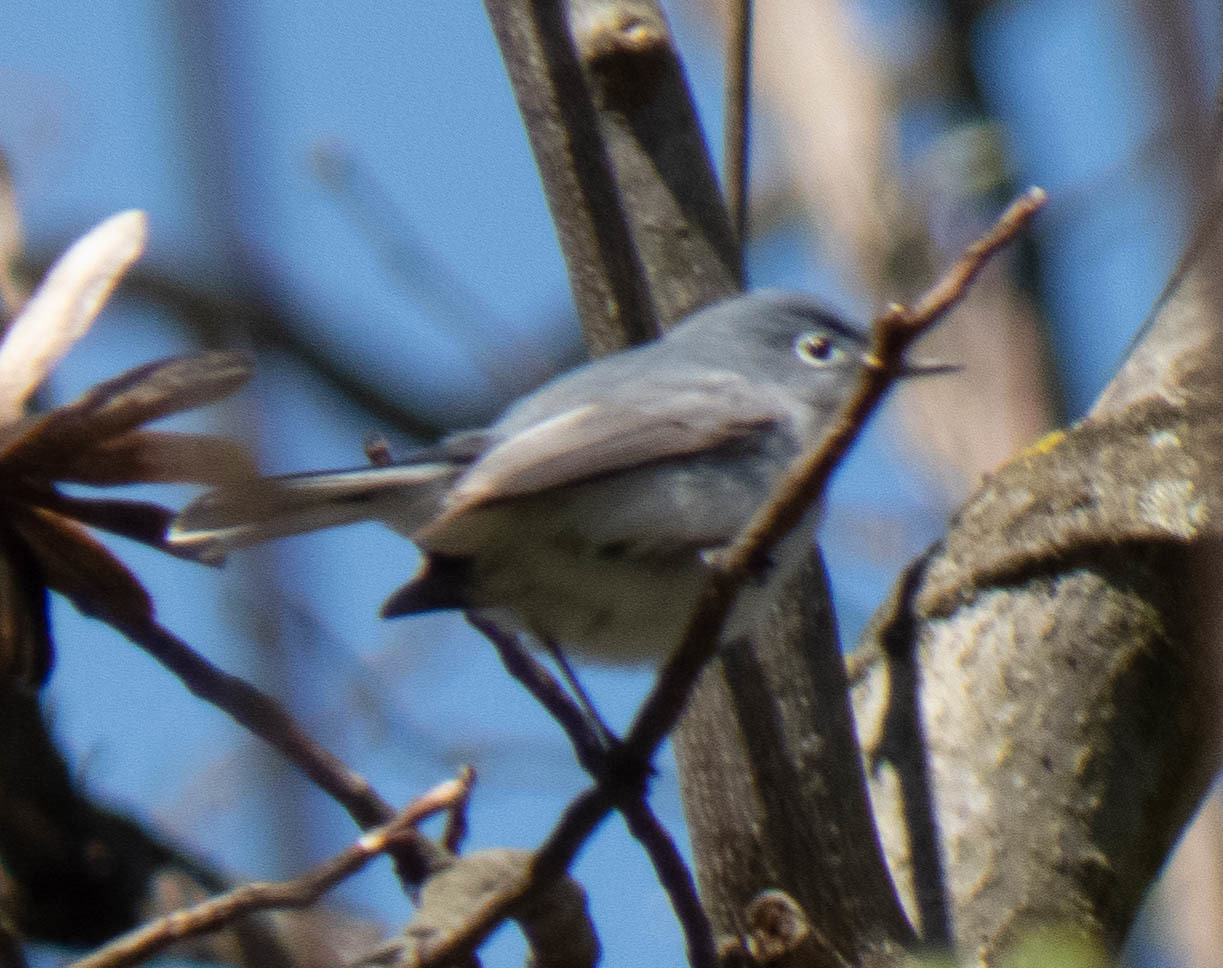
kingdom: Animalia
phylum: Chordata
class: Aves
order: Passeriformes
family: Polioptilidae
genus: Polioptila
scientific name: Polioptila caerulea
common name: Blue-gray gnatcatcher
